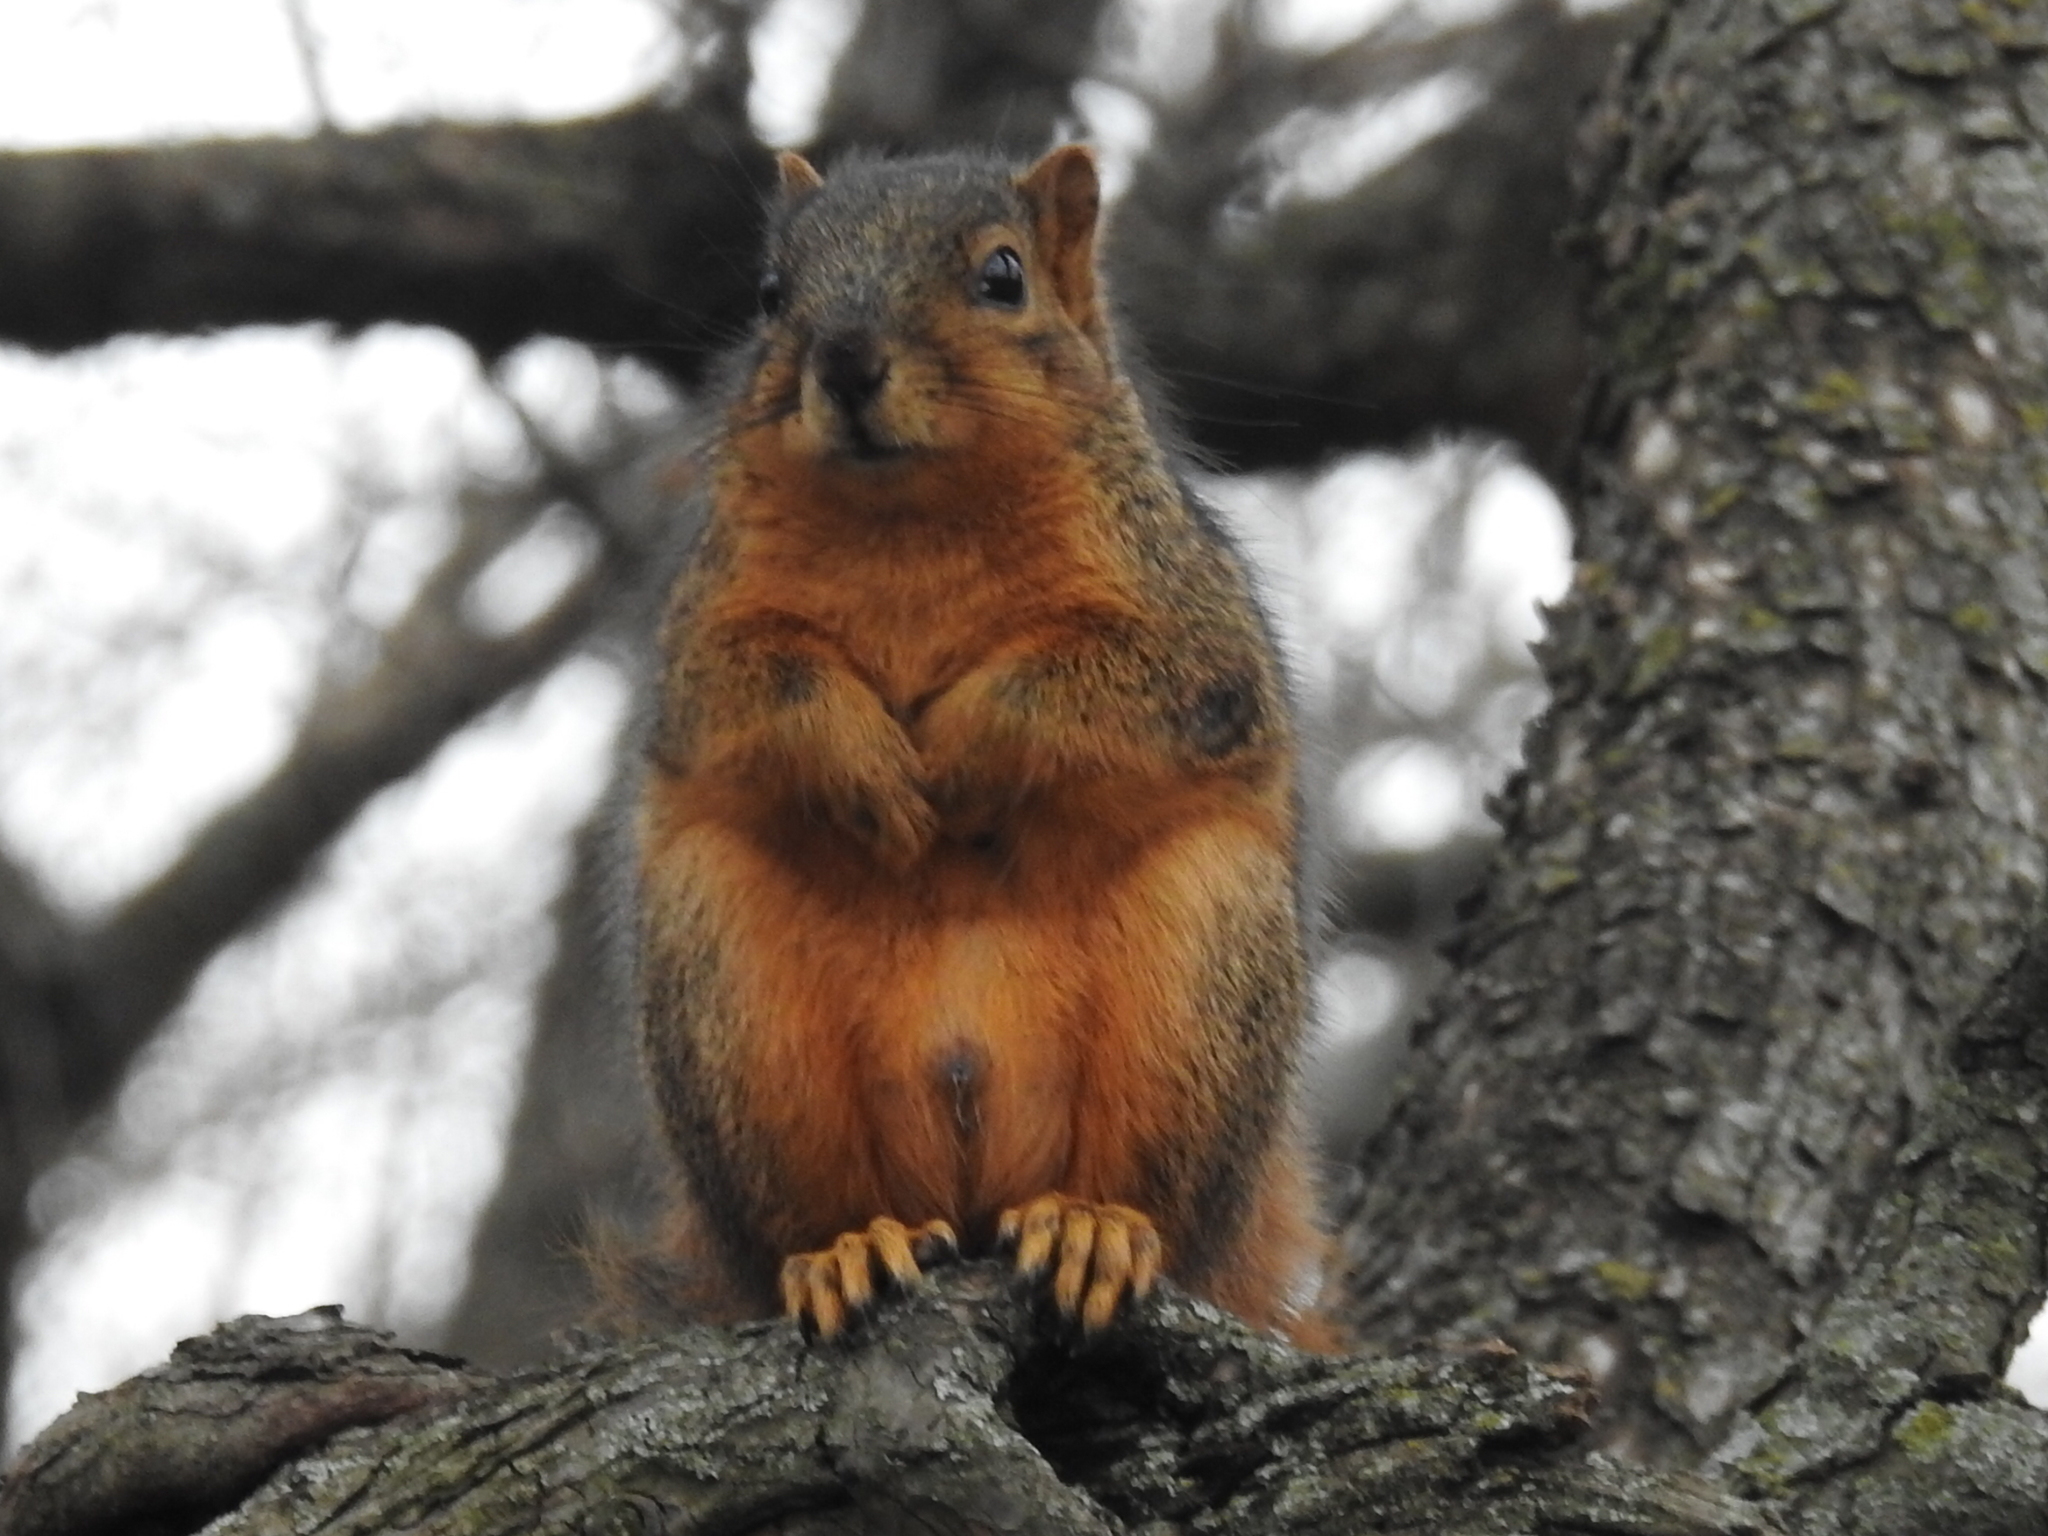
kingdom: Animalia
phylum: Chordata
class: Mammalia
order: Rodentia
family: Sciuridae
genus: Sciurus
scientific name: Sciurus niger
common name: Fox squirrel
